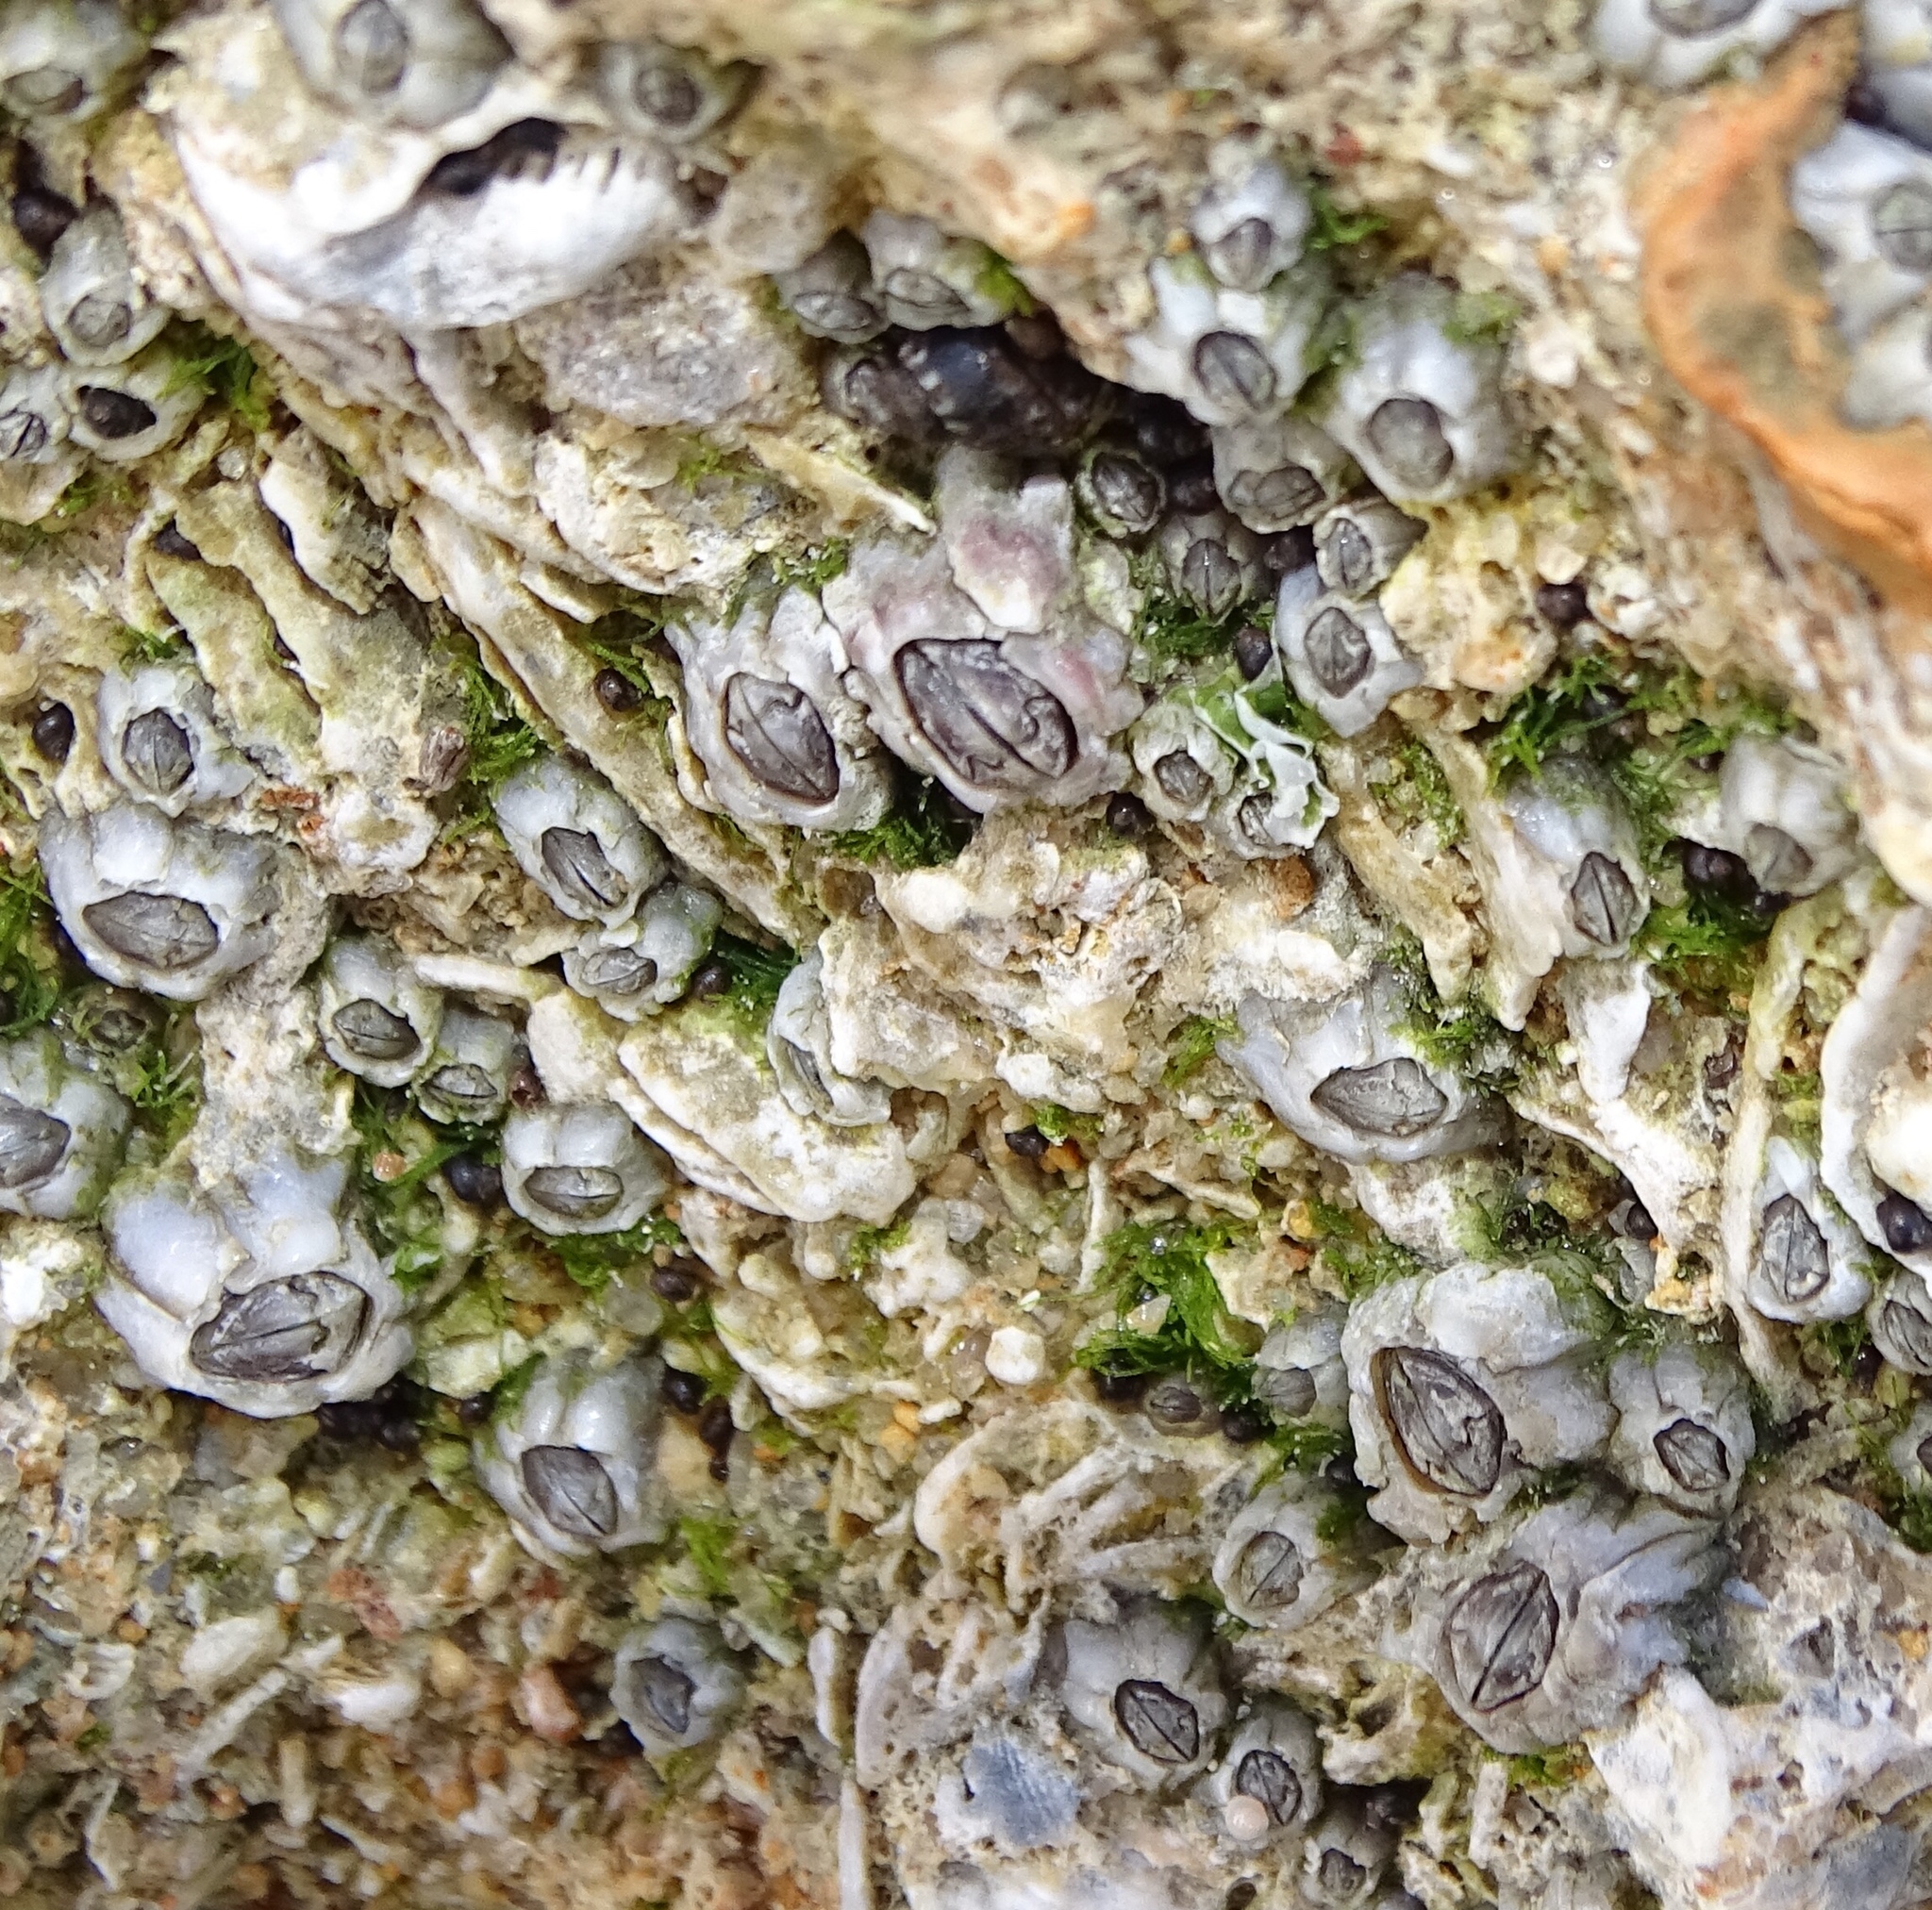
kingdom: Animalia
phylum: Arthropoda
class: Maxillopoda
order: Sessilia
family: Chthamalidae
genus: Chthamalus
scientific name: Chthamalus fragilis
